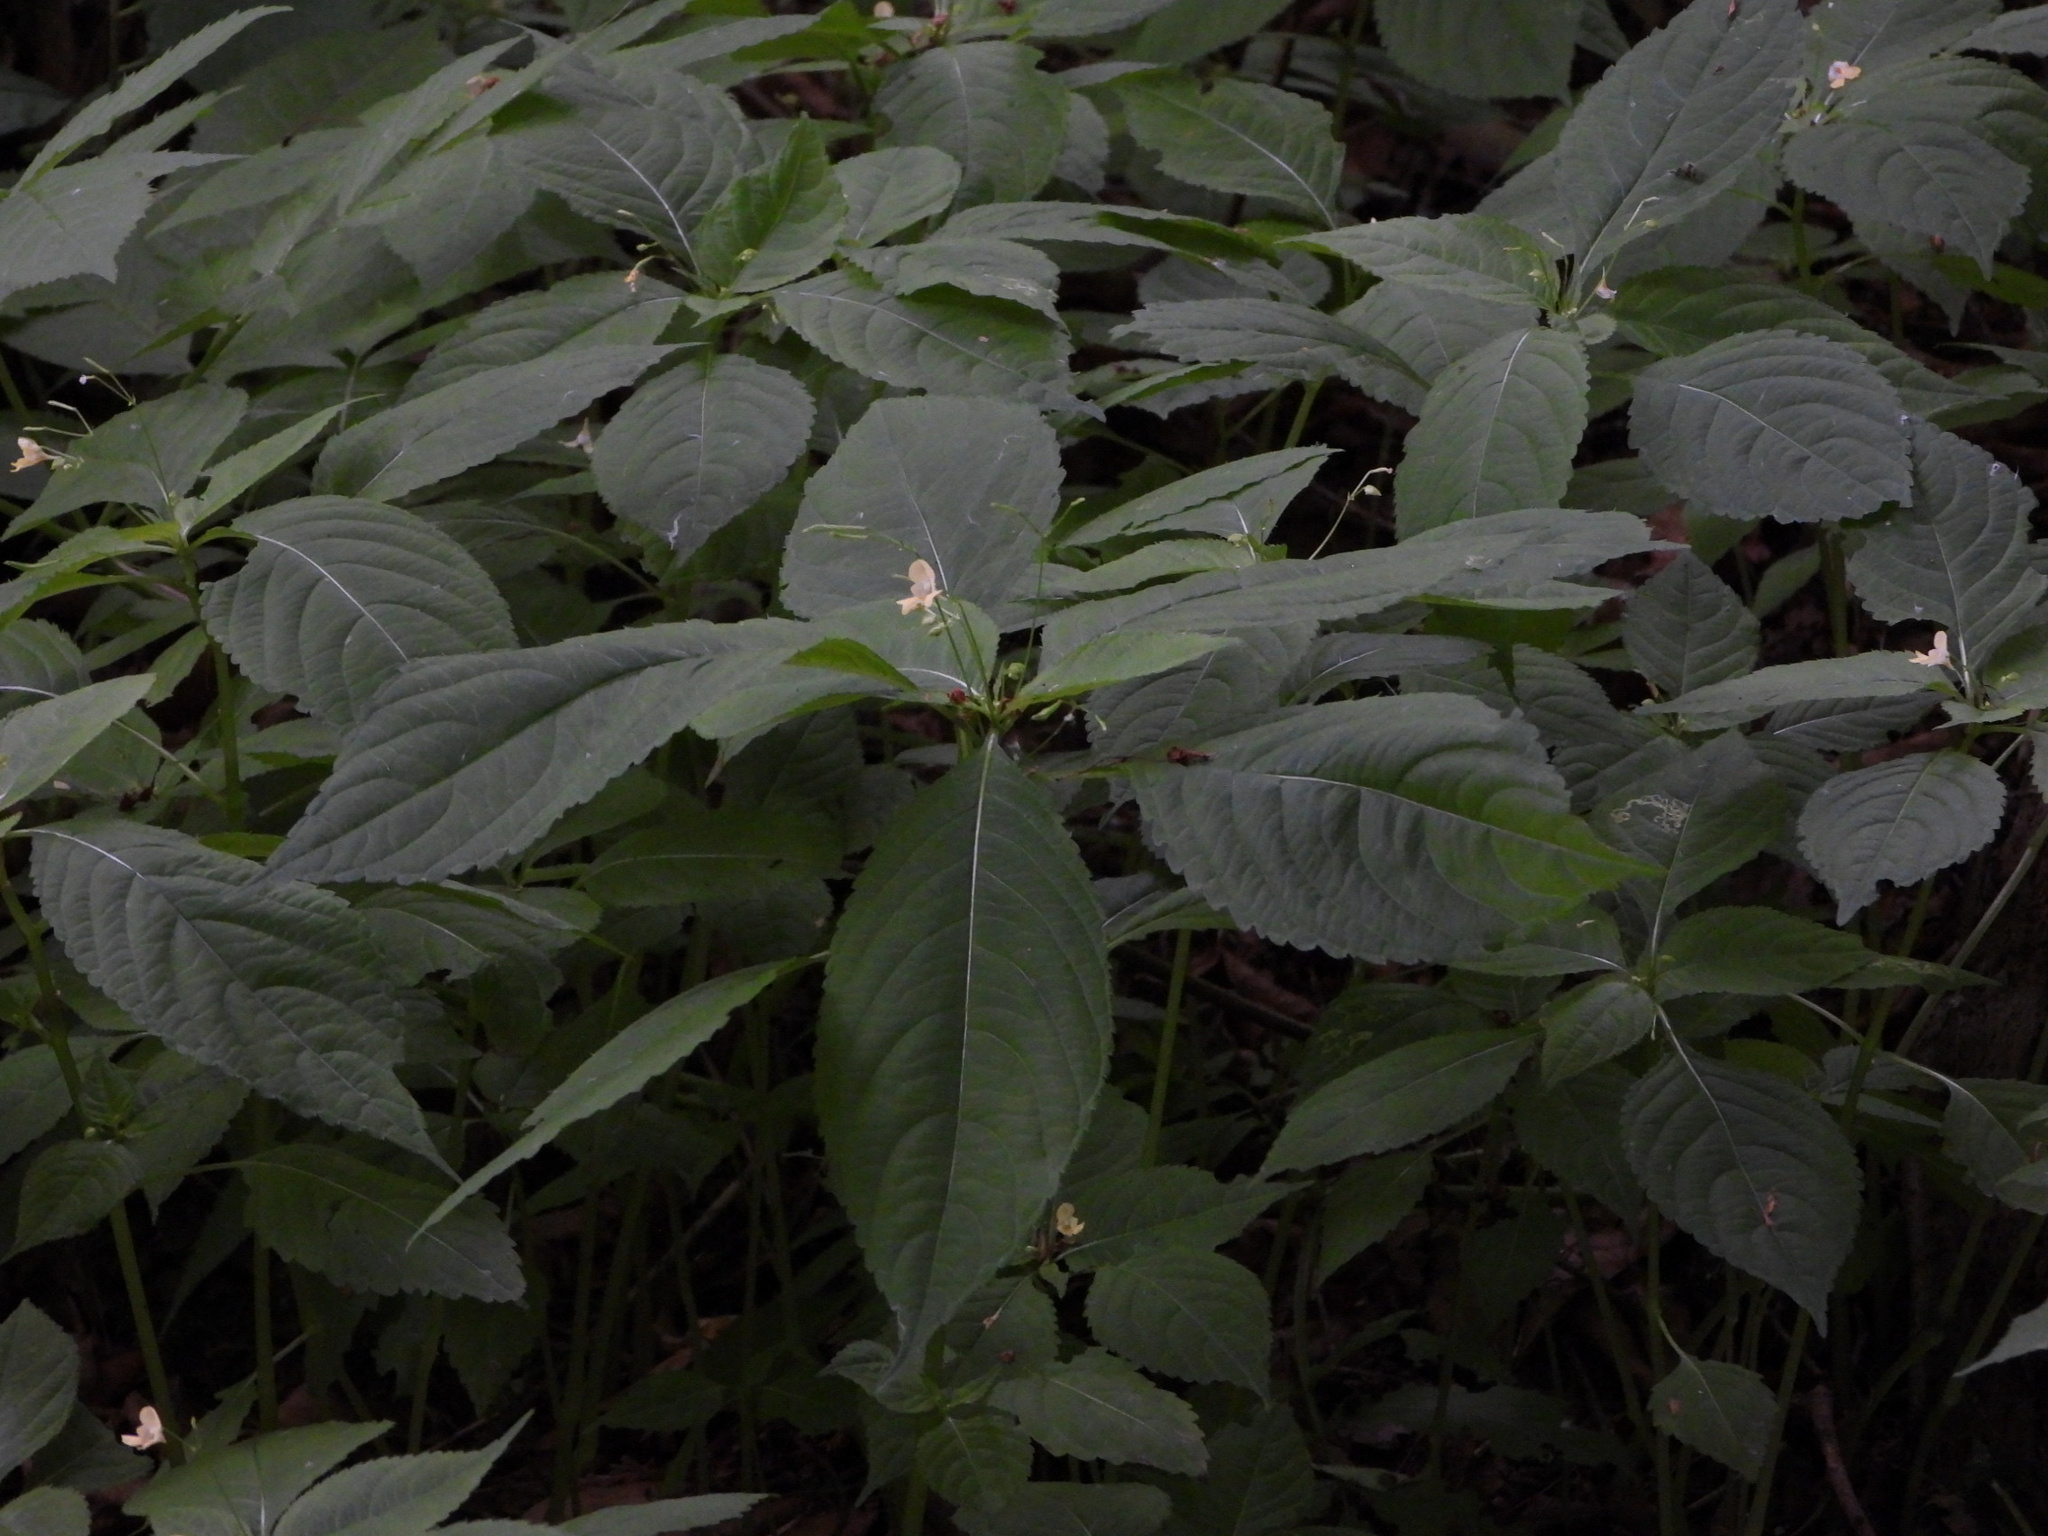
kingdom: Plantae
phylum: Tracheophyta
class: Magnoliopsida
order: Ericales
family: Balsaminaceae
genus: Impatiens
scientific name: Impatiens parviflora
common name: Small balsam
